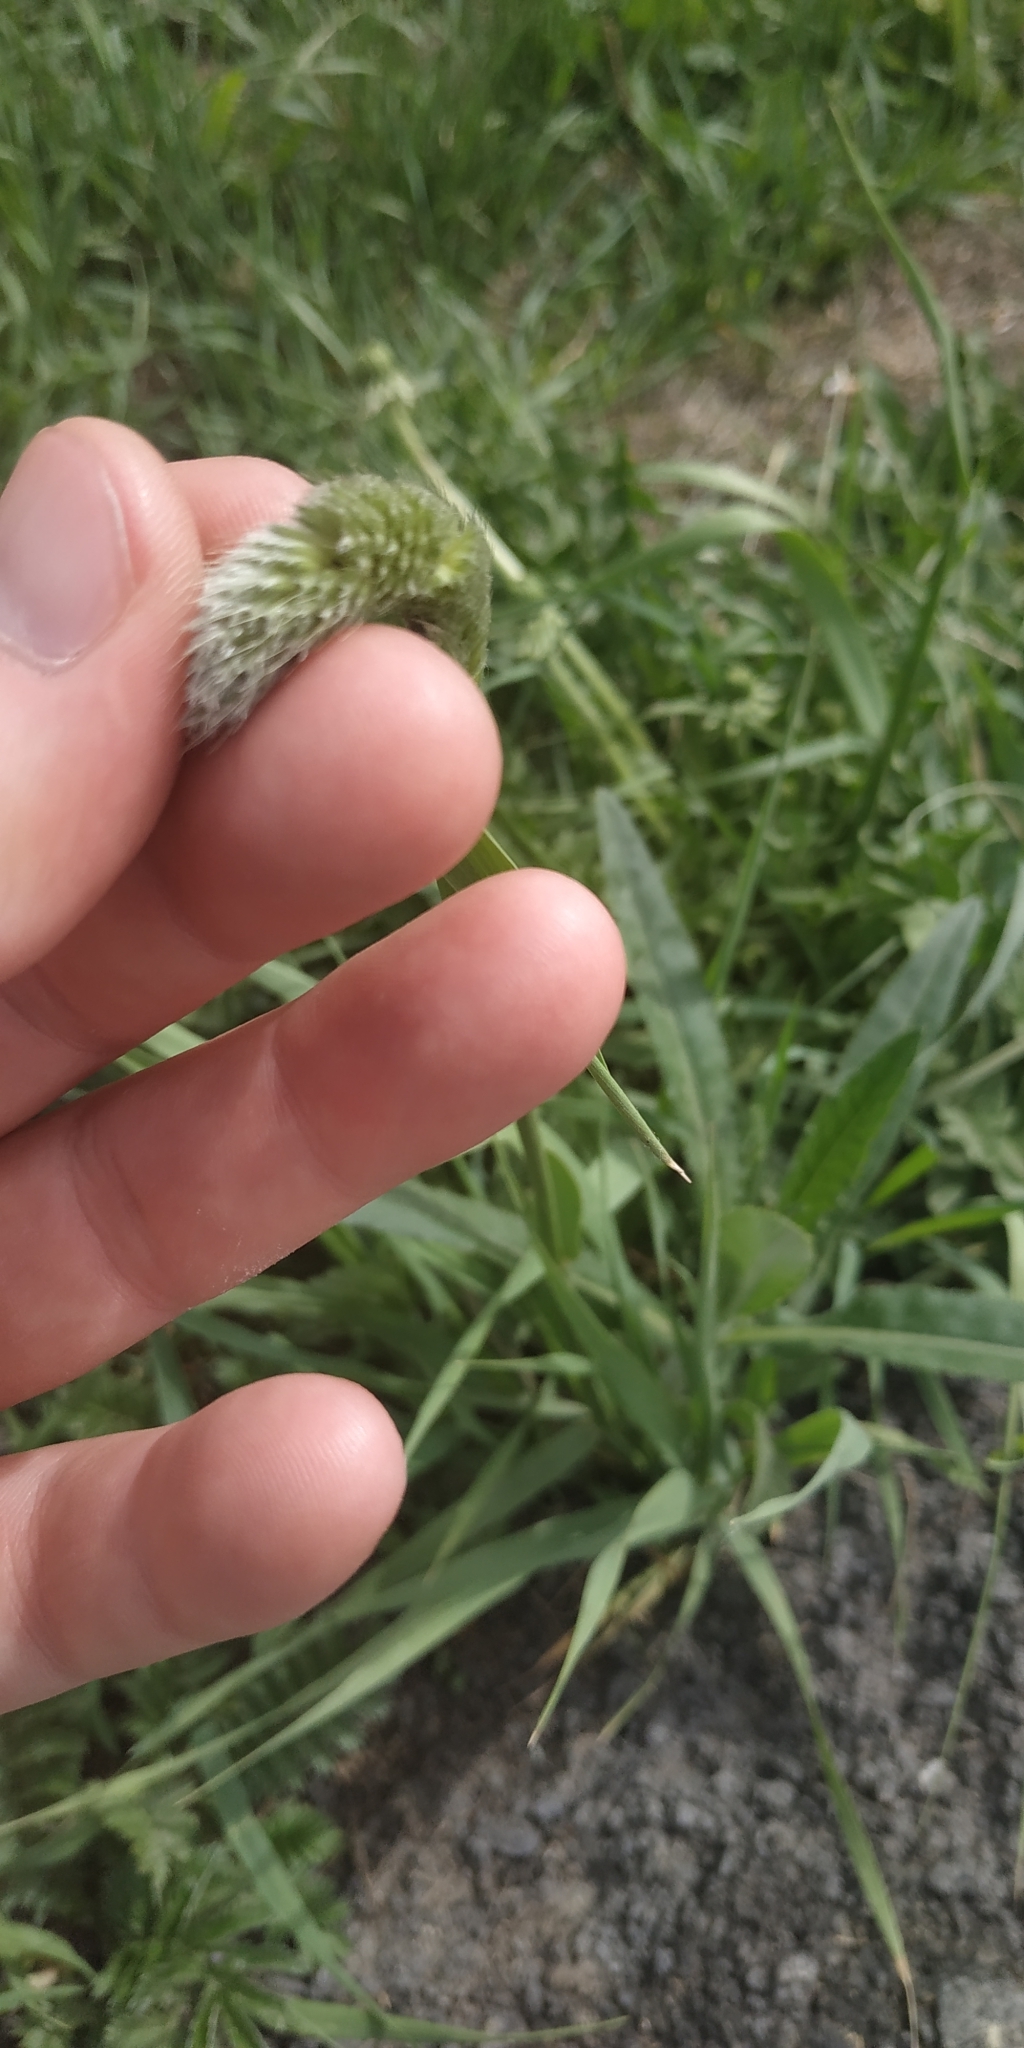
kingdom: Plantae
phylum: Tracheophyta
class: Liliopsida
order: Poales
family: Poaceae
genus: Alopecurus
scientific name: Alopecurus pratensis
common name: Meadow foxtail
